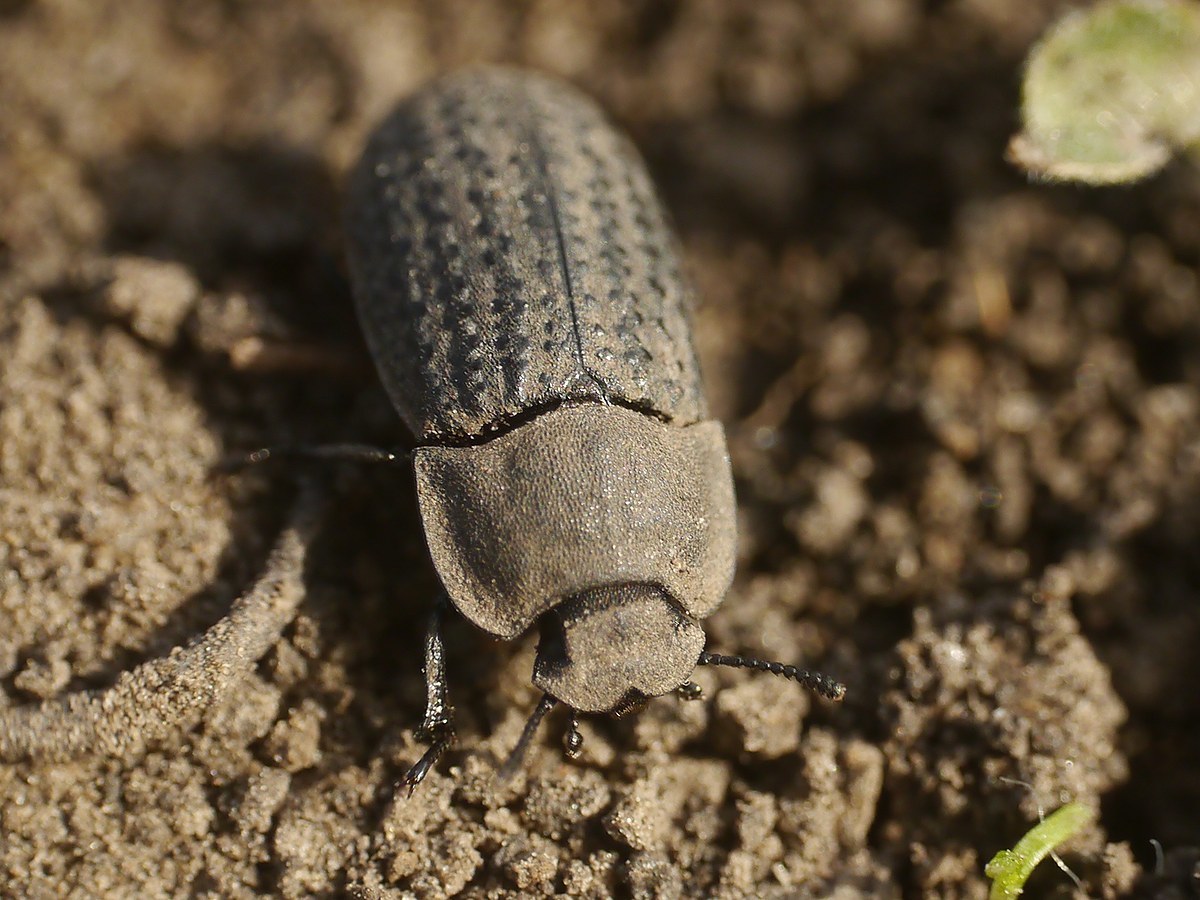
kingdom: Animalia
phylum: Arthropoda
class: Insecta
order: Coleoptera
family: Tenebrionidae
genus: Opatrum
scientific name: Opatrum sabulosum
